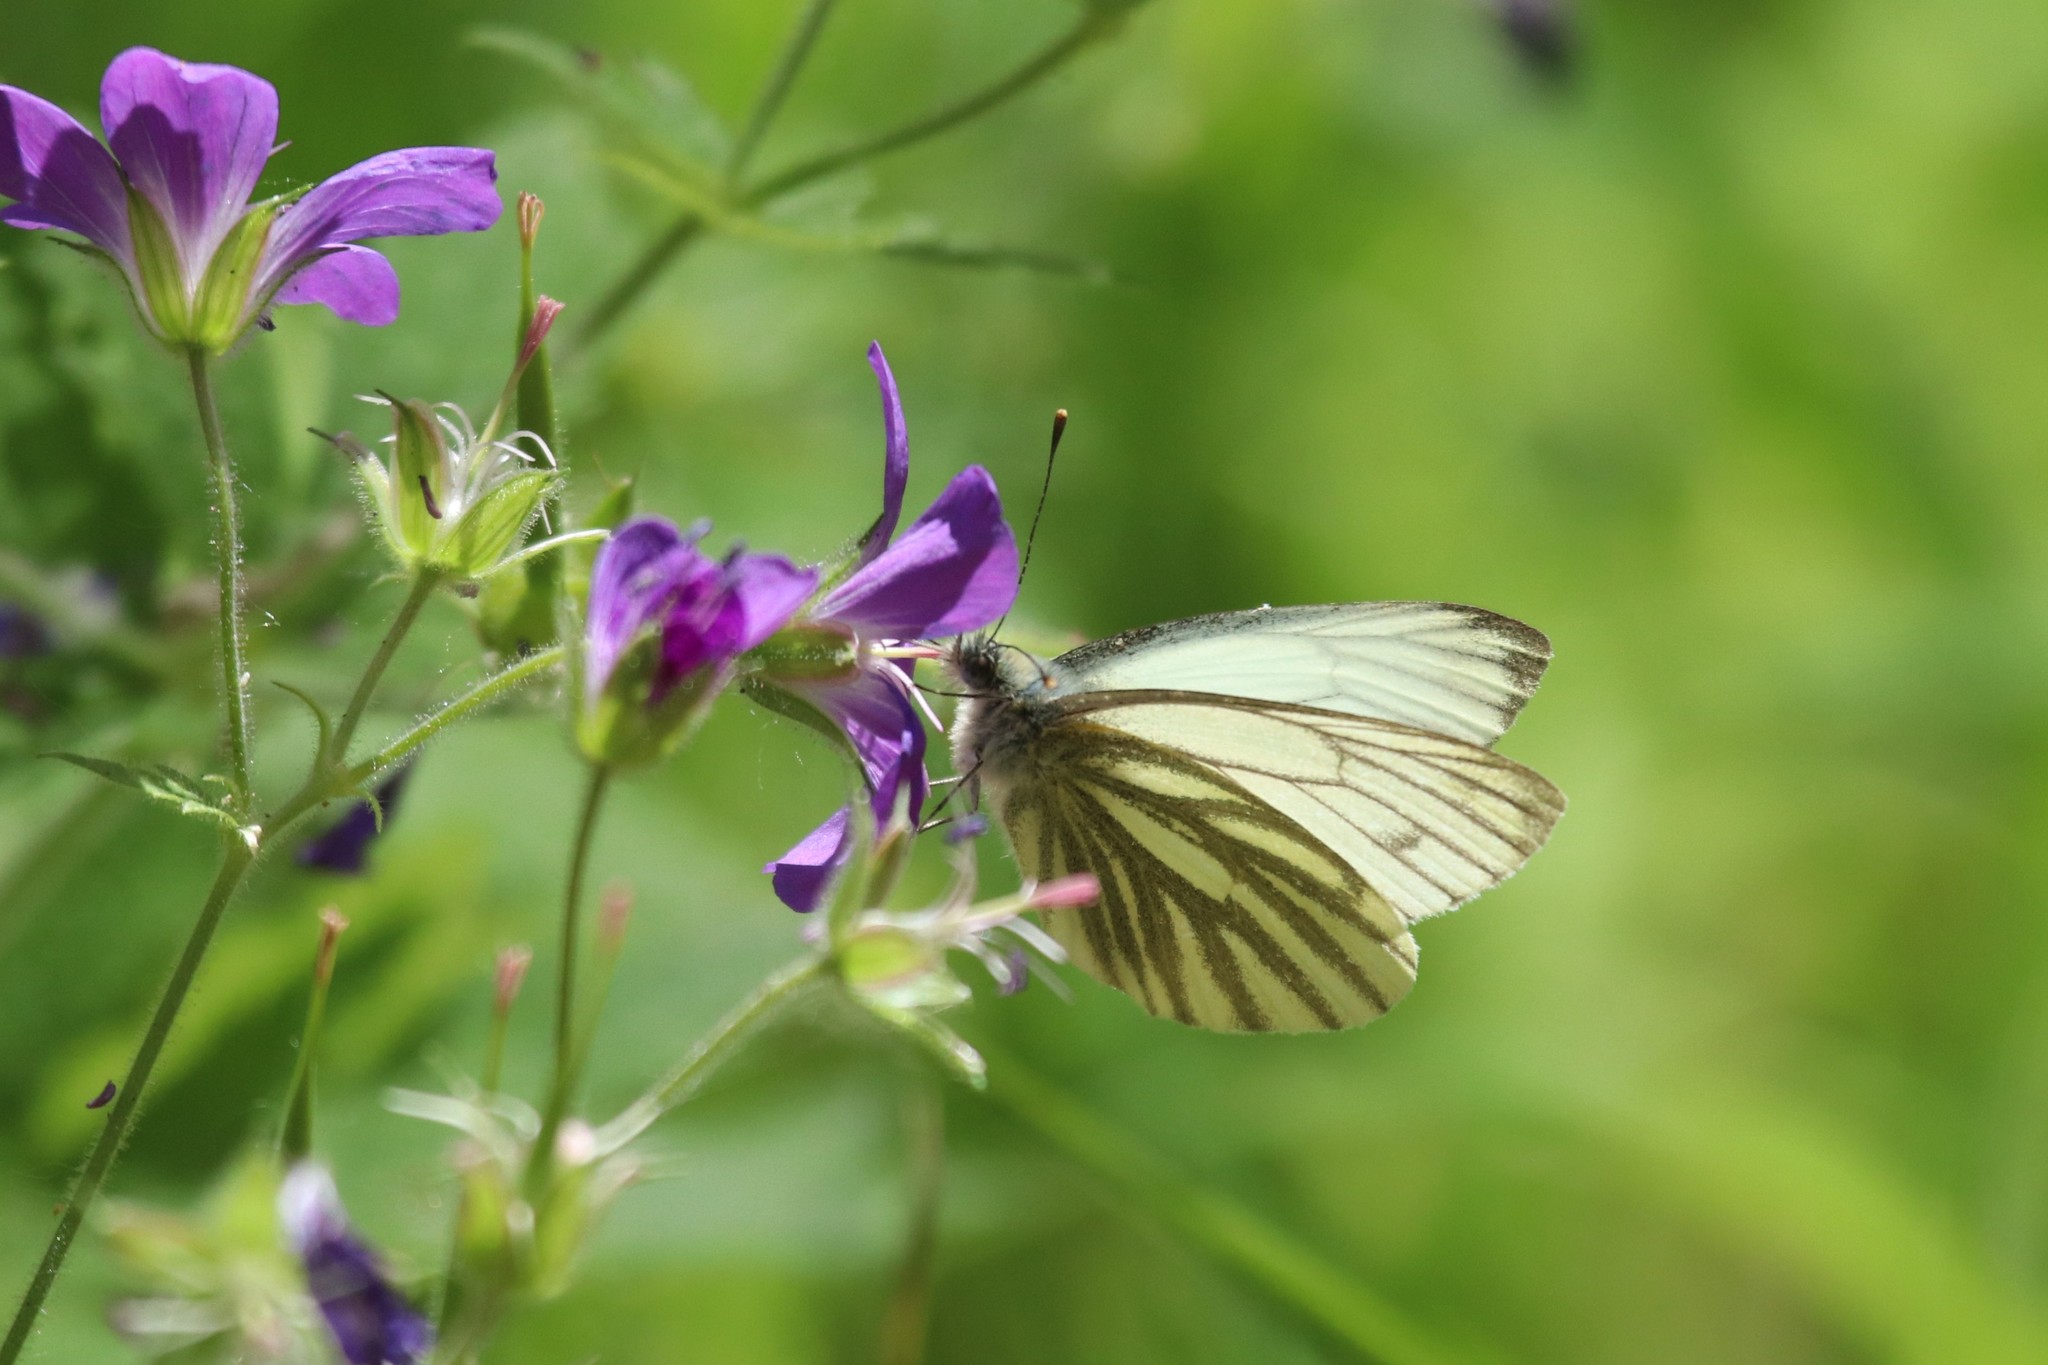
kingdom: Animalia
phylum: Arthropoda
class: Insecta
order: Lepidoptera
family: Pieridae
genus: Pieris
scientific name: Pieris napi
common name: Green-veined white
